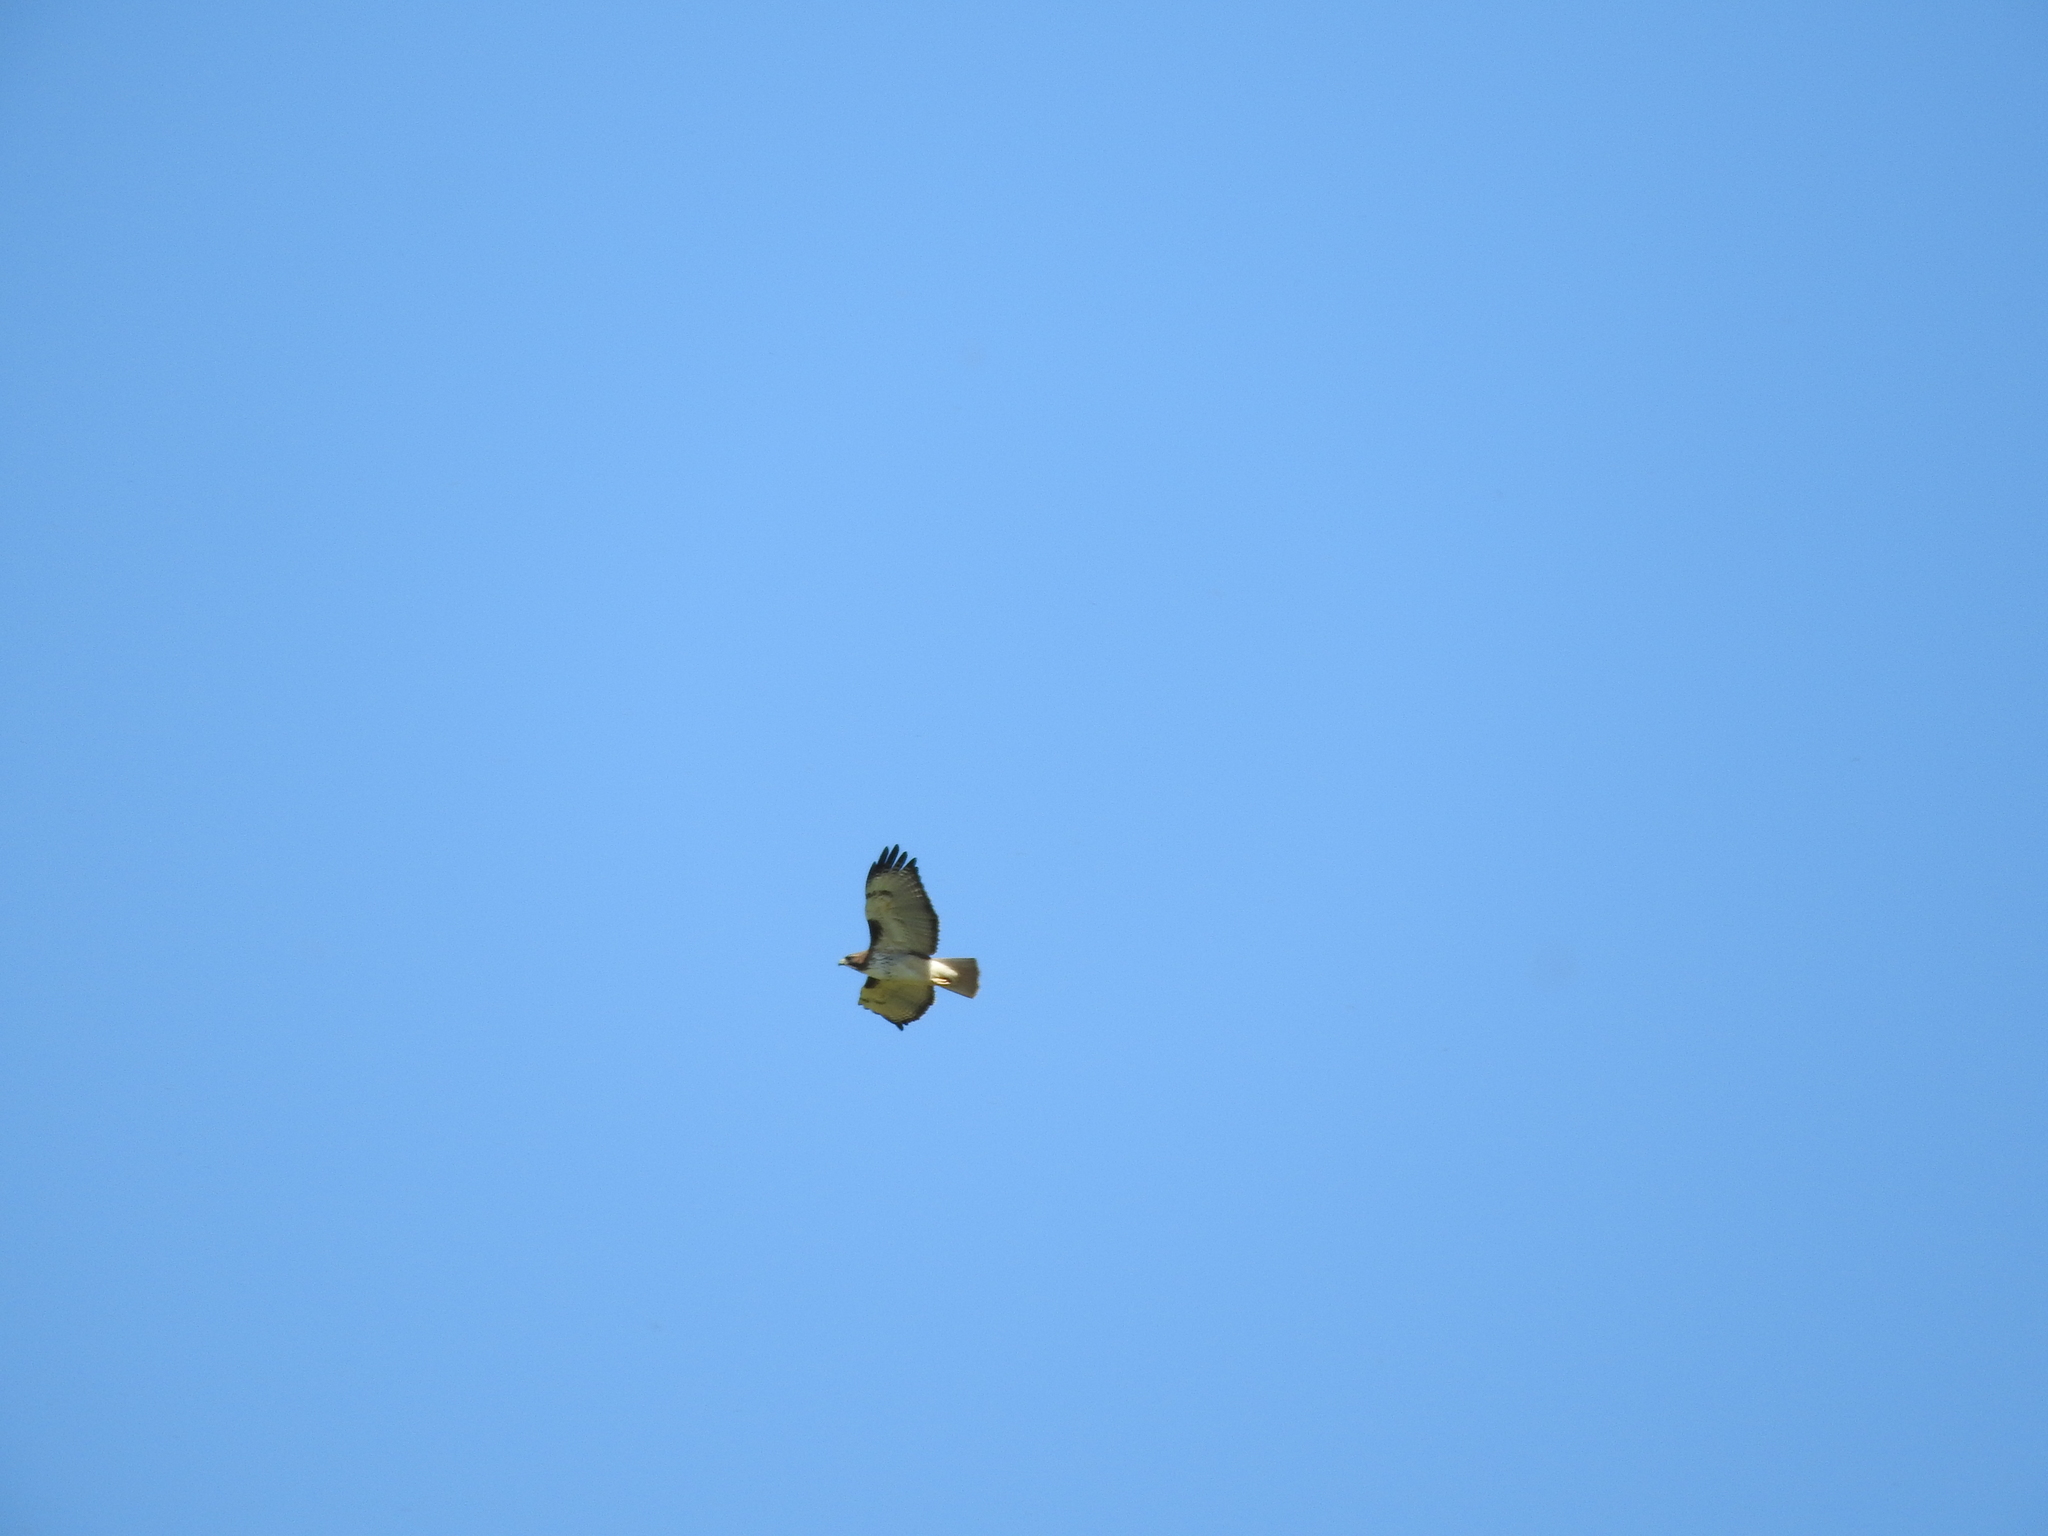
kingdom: Animalia
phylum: Chordata
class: Aves
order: Accipitriformes
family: Accipitridae
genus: Buteo
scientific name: Buteo jamaicensis
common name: Red-tailed hawk
